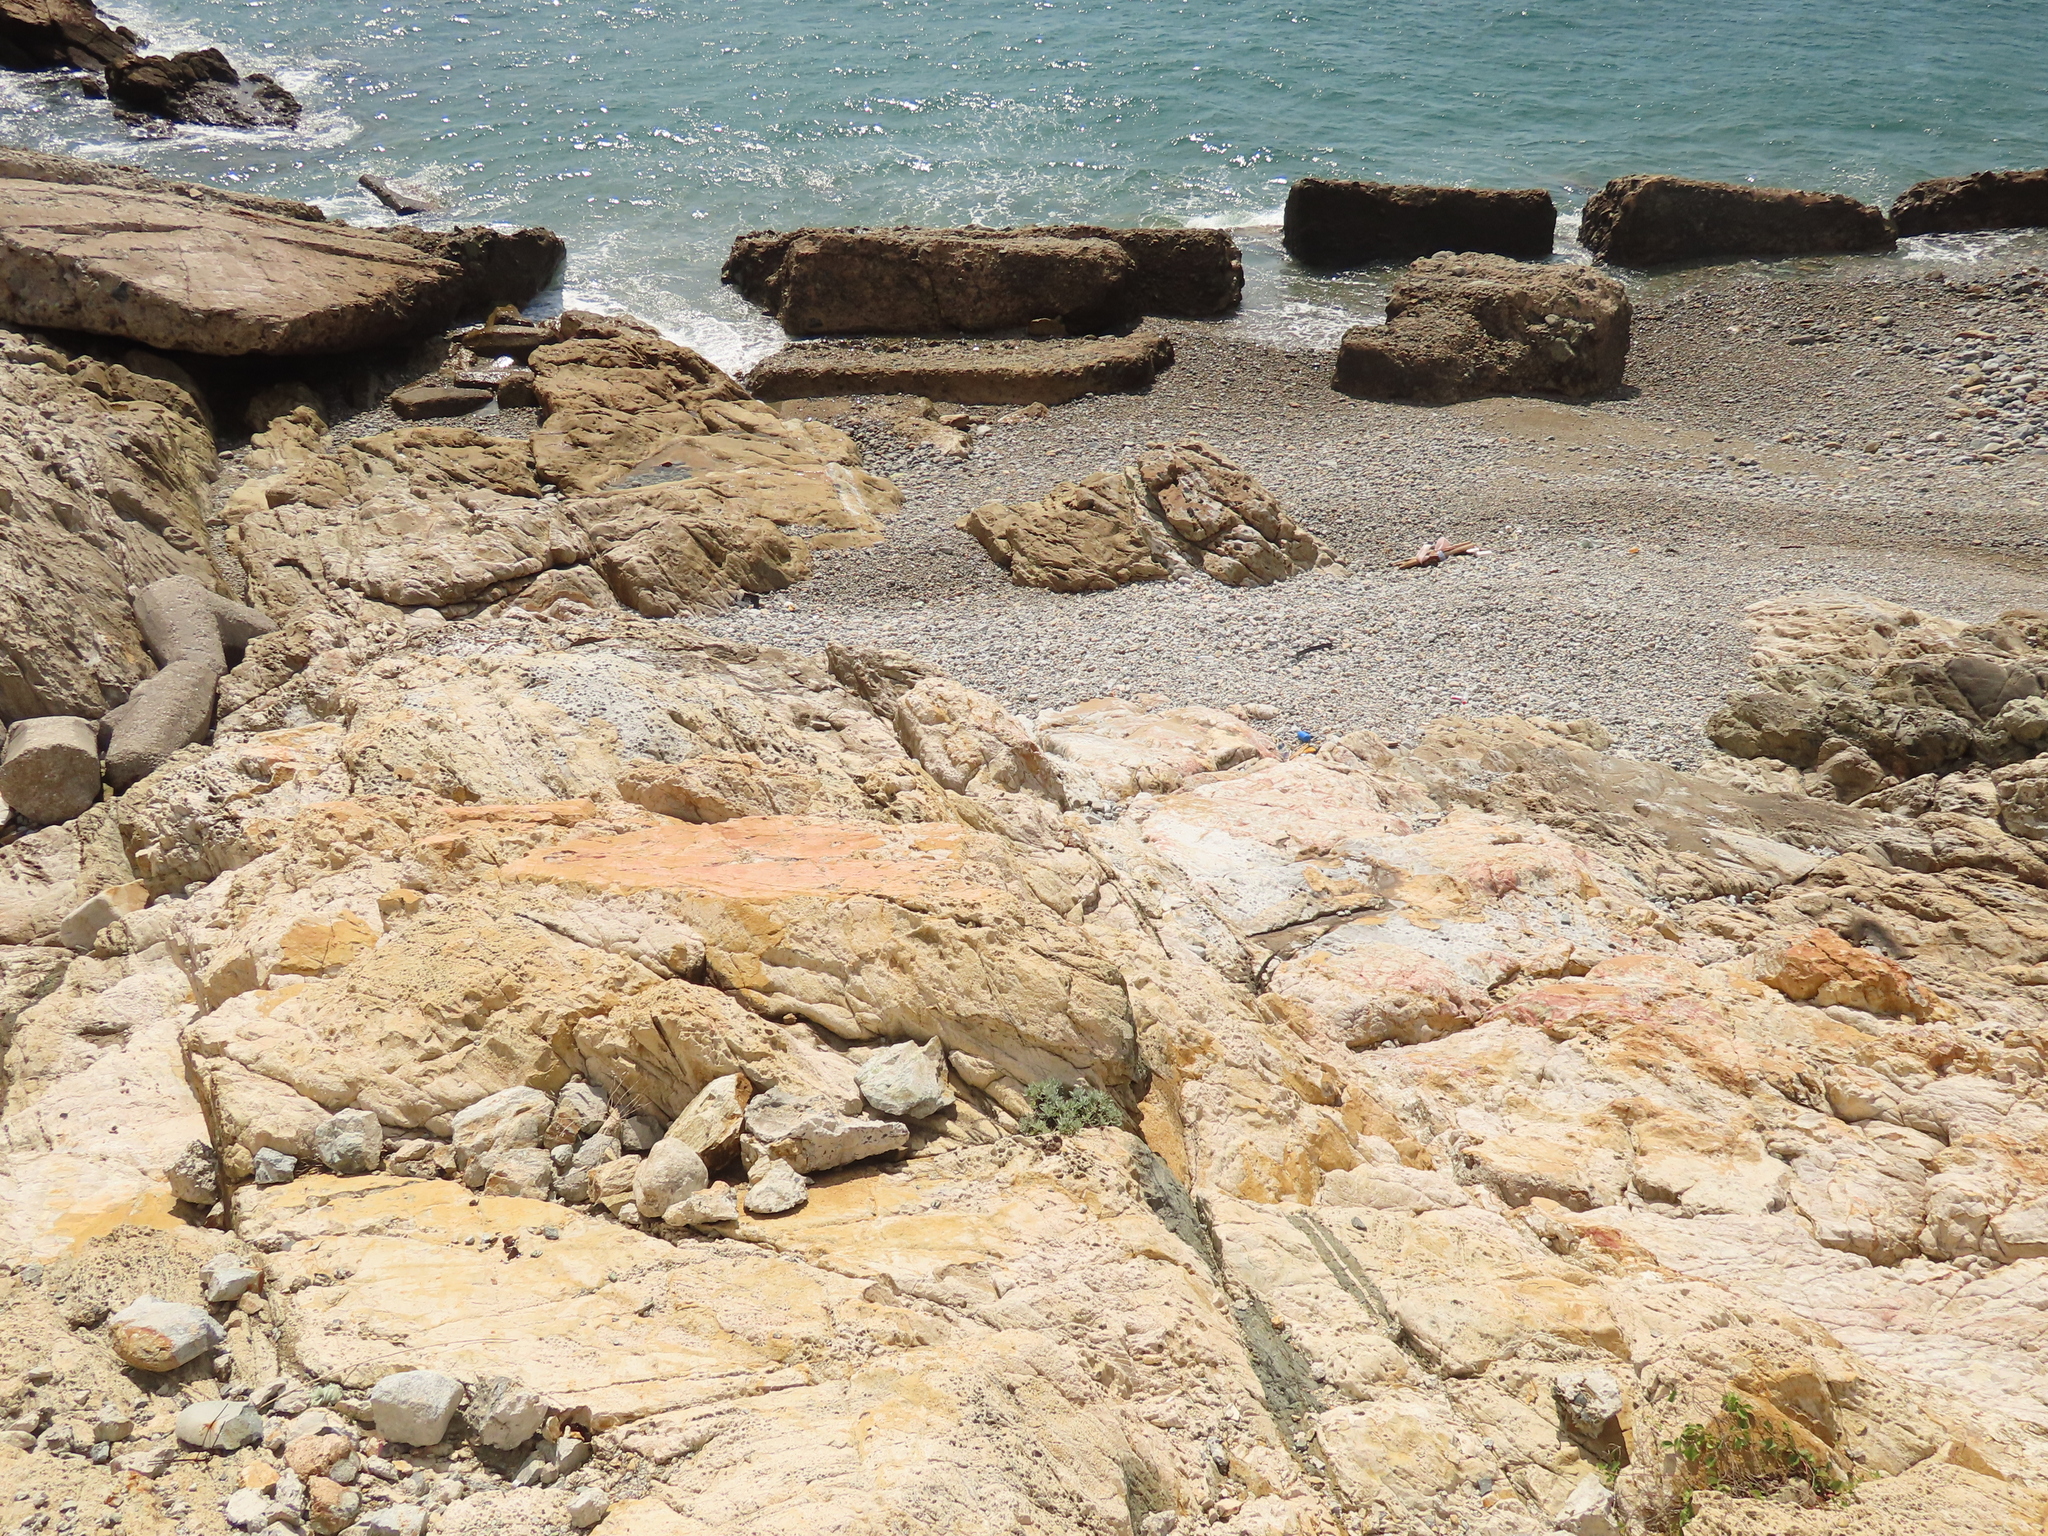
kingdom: Plantae
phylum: Tracheophyta
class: Magnoliopsida
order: Asterales
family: Asteraceae
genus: Crossostephium
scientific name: Crossostephium chinense
